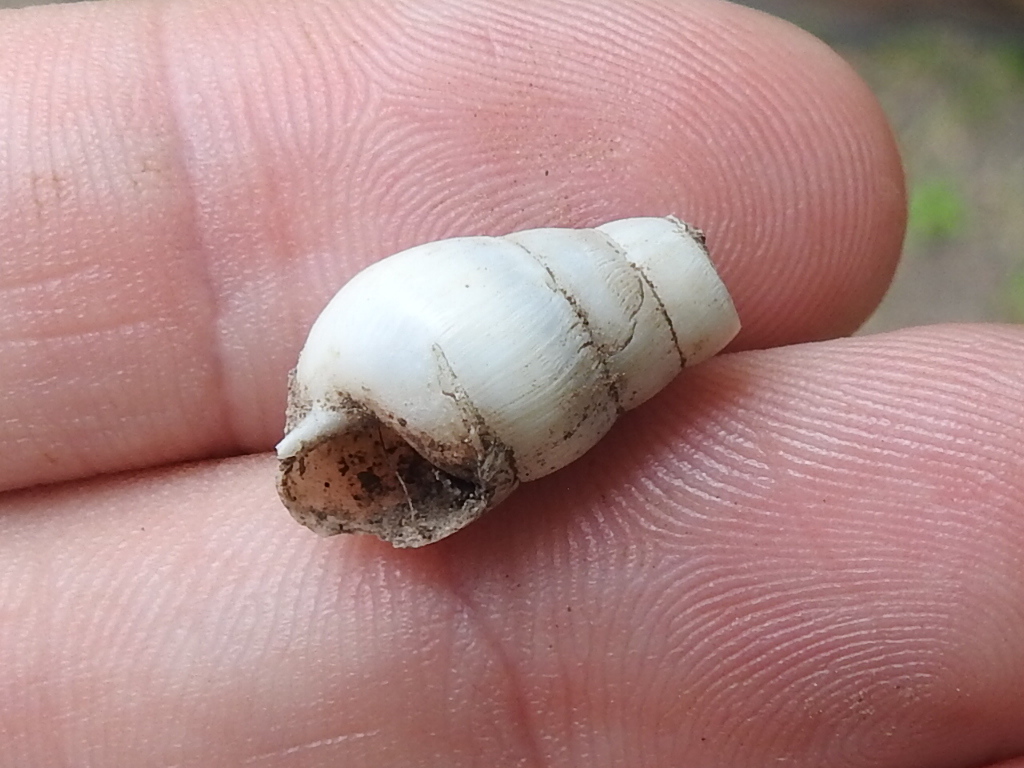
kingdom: Animalia
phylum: Mollusca
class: Gastropoda
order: Stylommatophora
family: Achatinidae
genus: Rumina
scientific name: Rumina decollata
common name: Decollate snail
